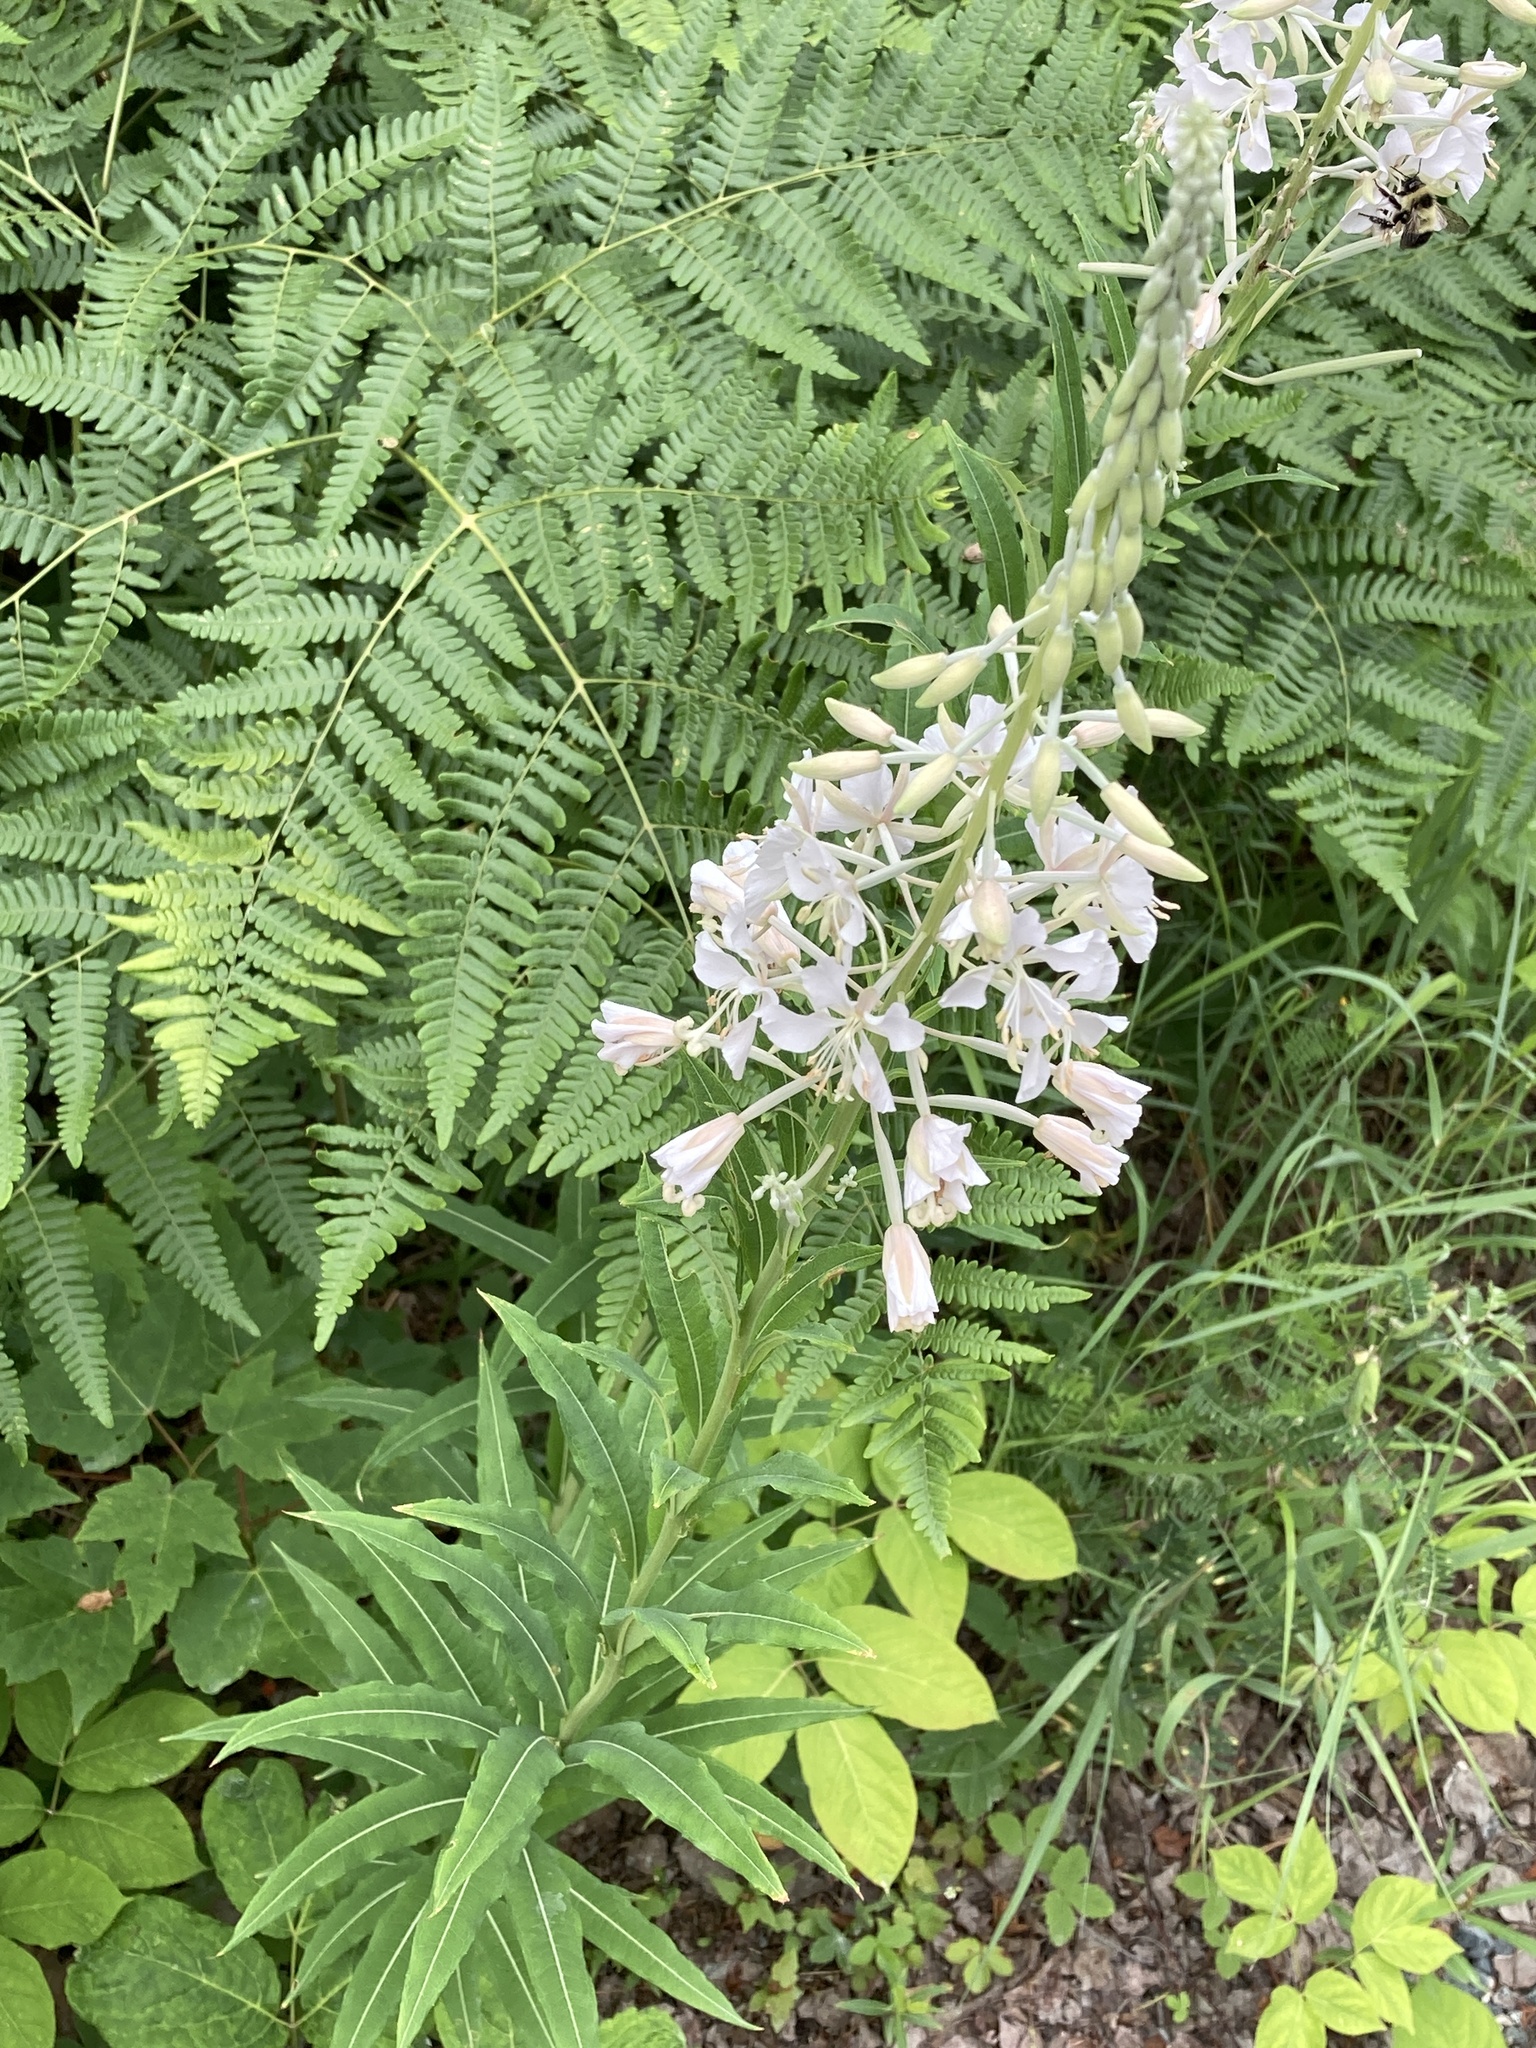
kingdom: Plantae
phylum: Tracheophyta
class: Magnoliopsida
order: Myrtales
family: Onagraceae
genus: Chamaenerion
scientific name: Chamaenerion angustifolium
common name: Fireweed
